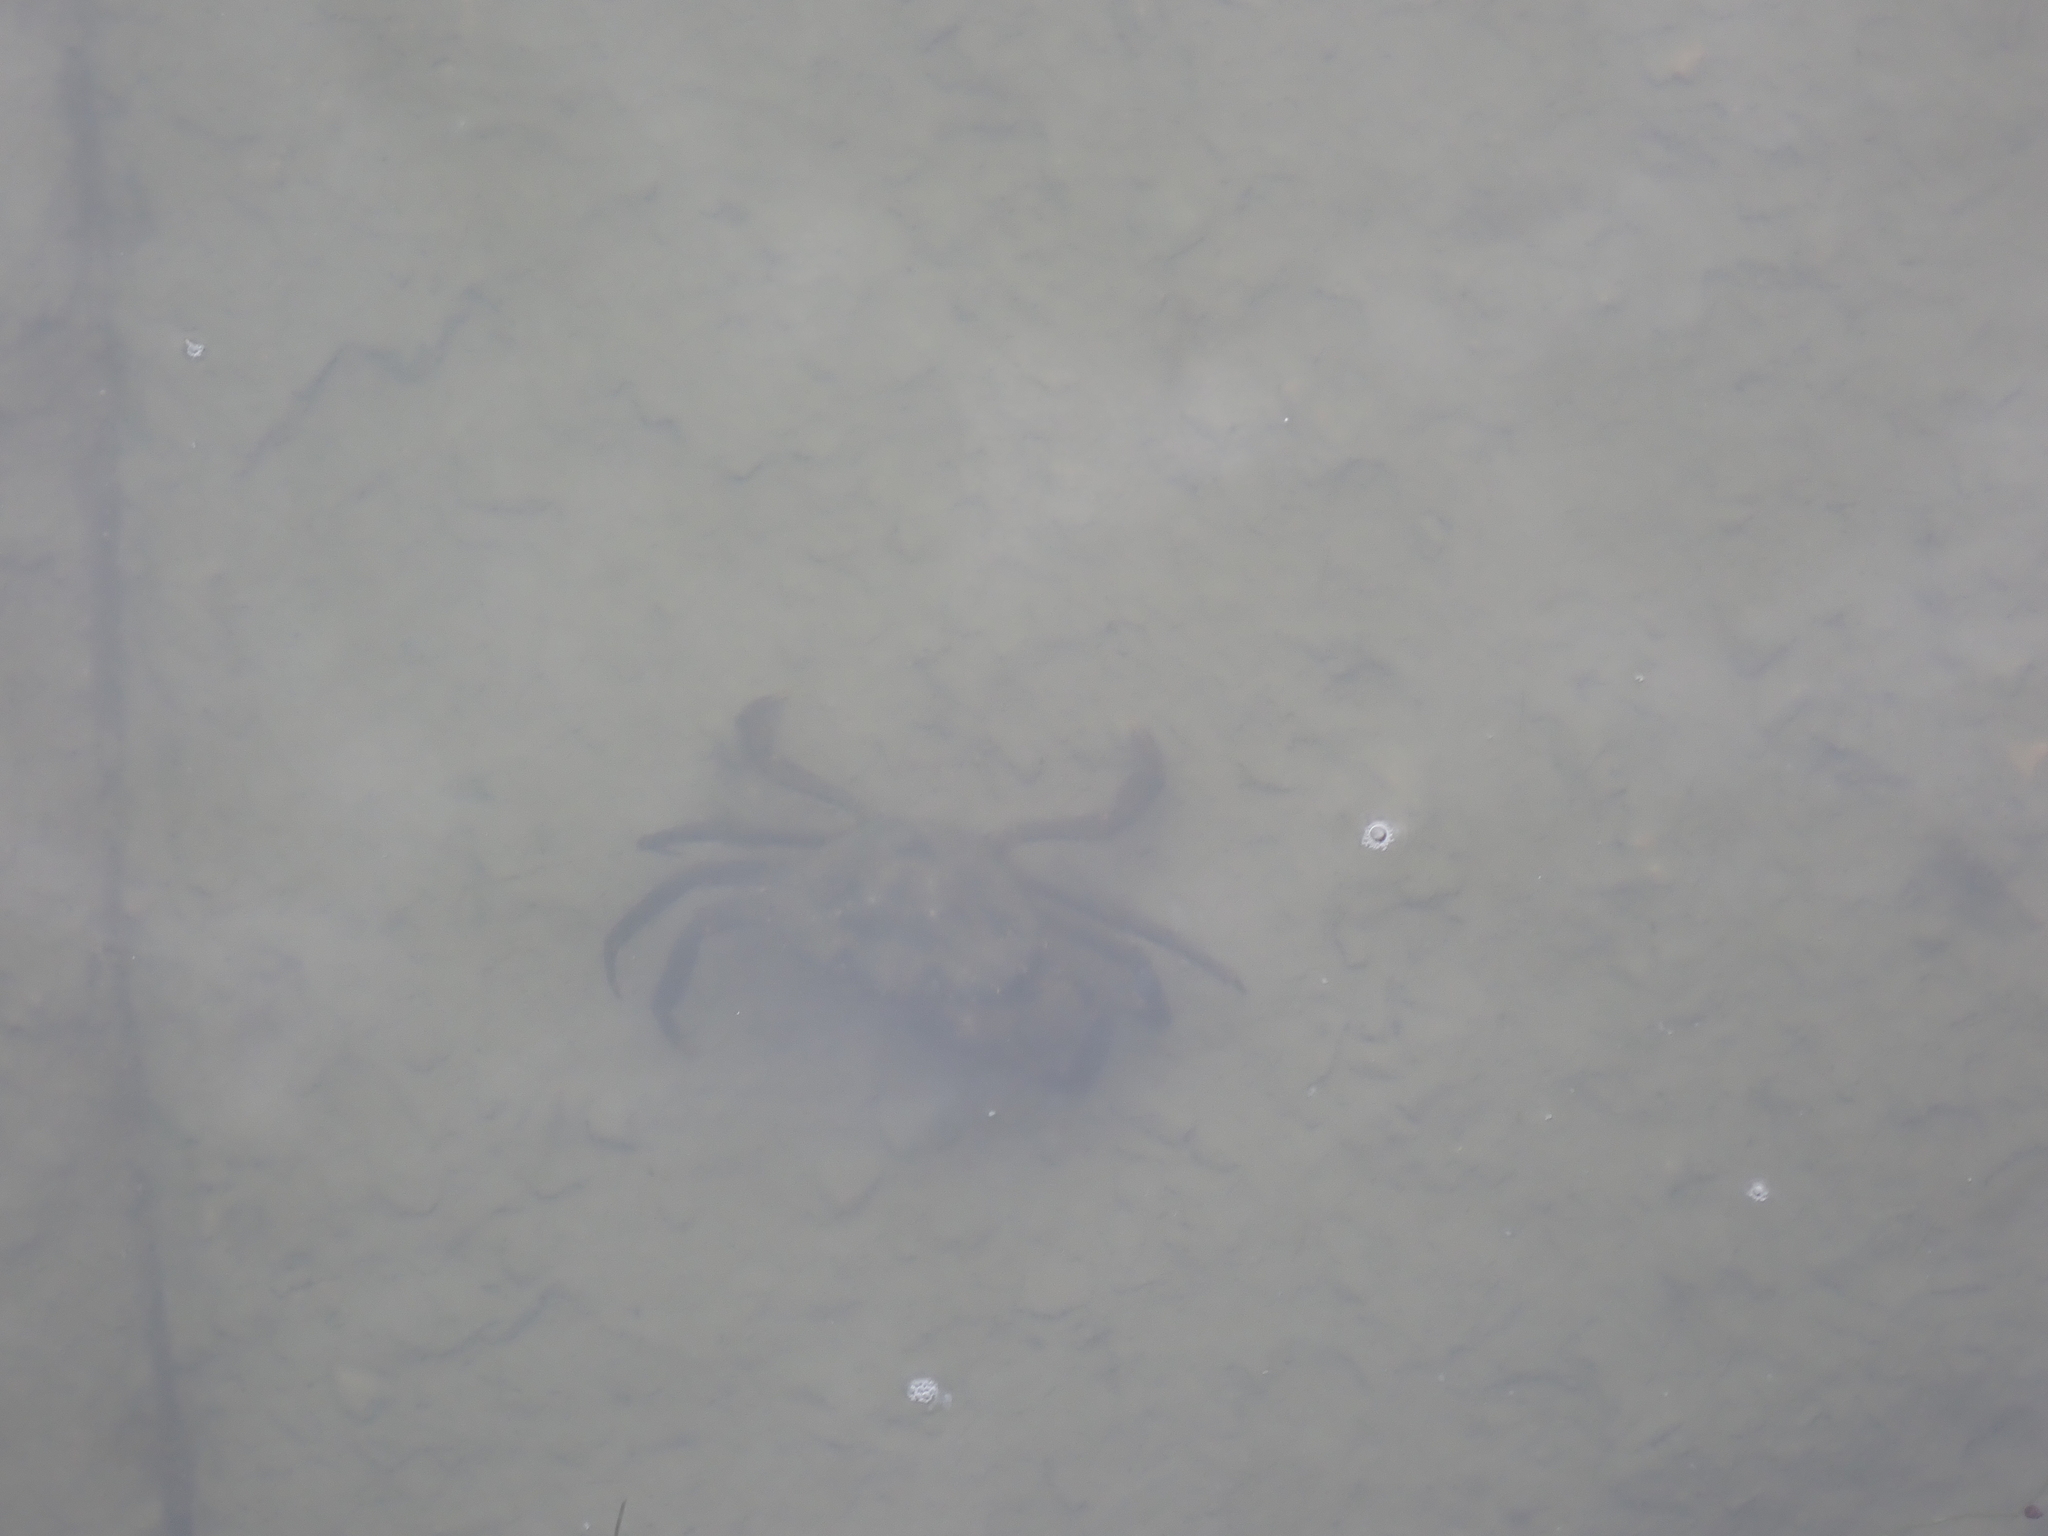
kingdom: Animalia
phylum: Arthropoda
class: Malacostraca
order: Decapoda
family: Carcinidae
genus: Carcinus
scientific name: Carcinus maenas
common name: European green crab
